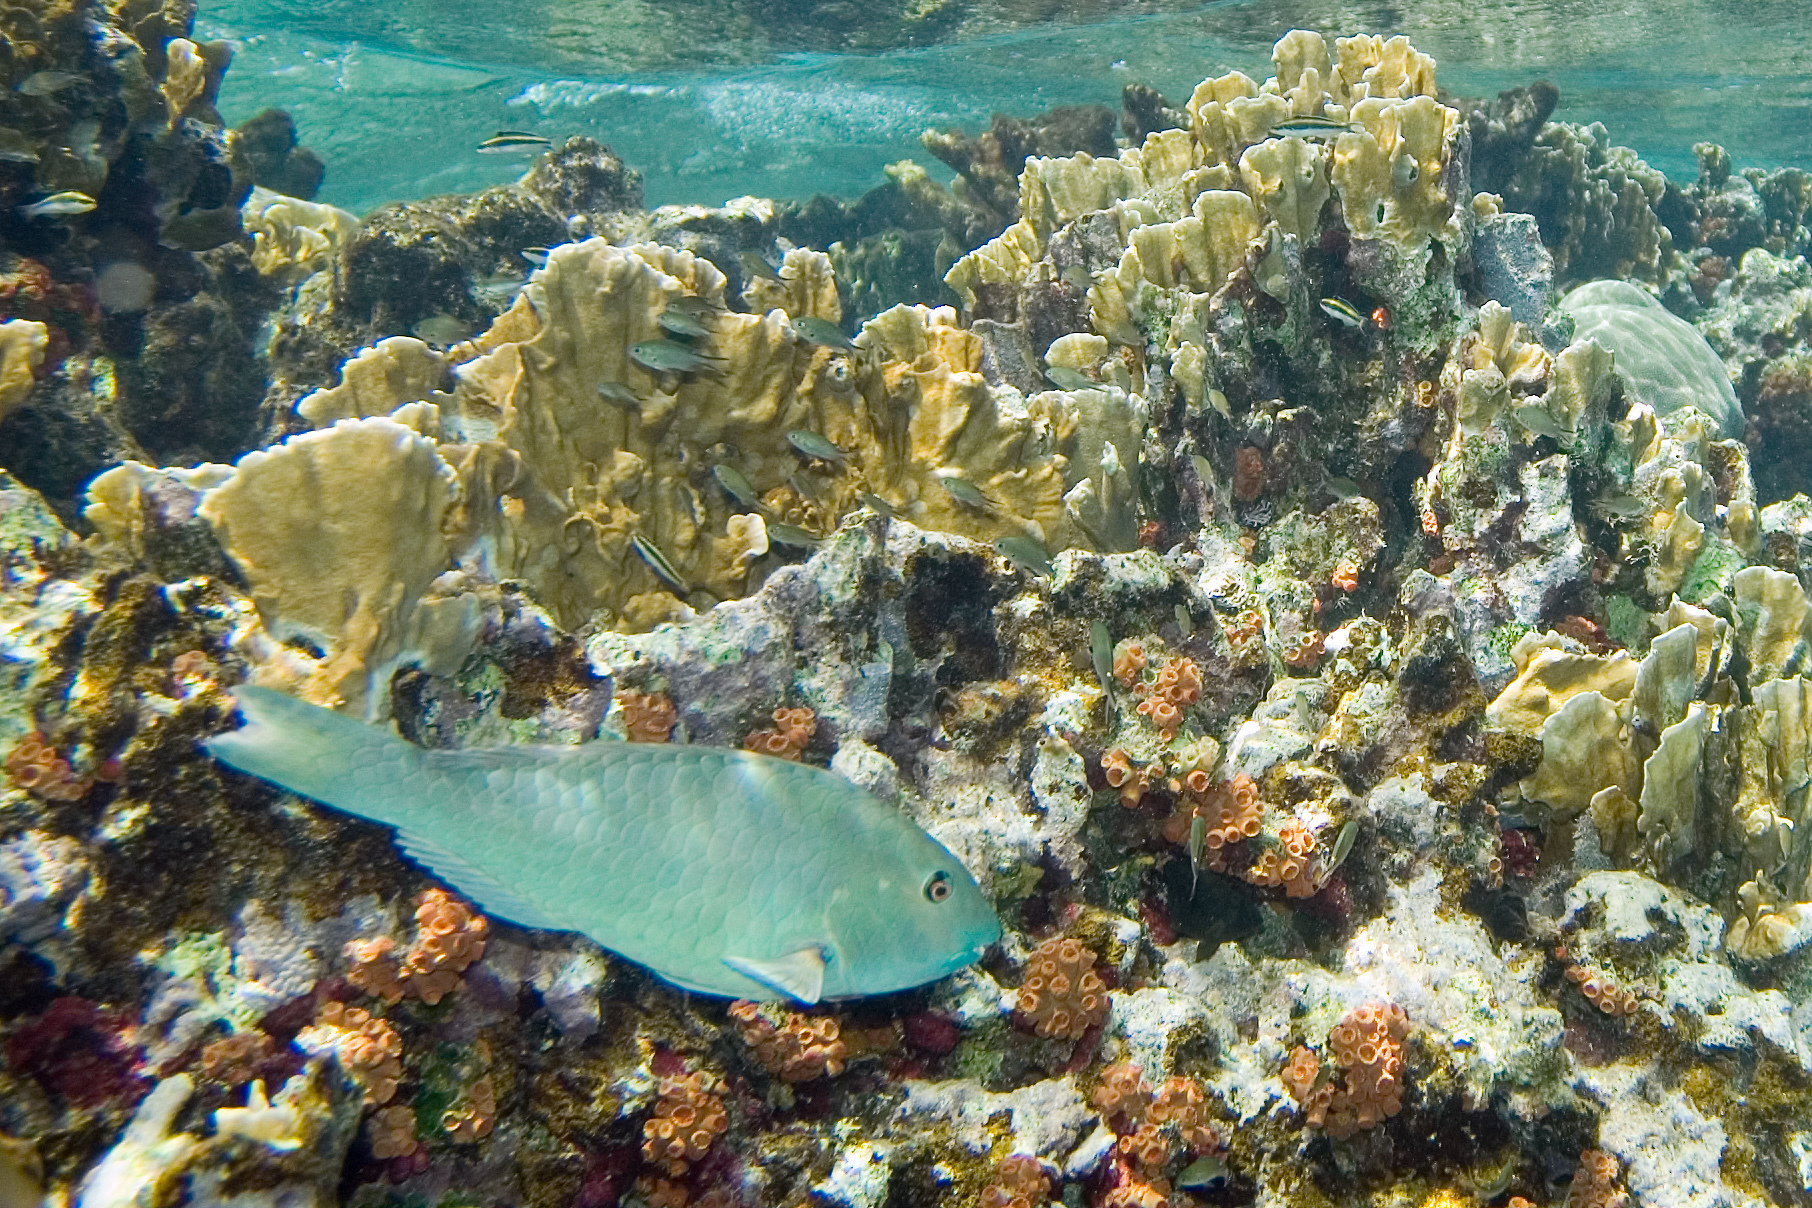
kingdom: Animalia
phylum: Chordata
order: Perciformes
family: Scaridae
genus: Sparisoma
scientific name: Sparisoma rubripinne
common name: Redfin parrotfish
